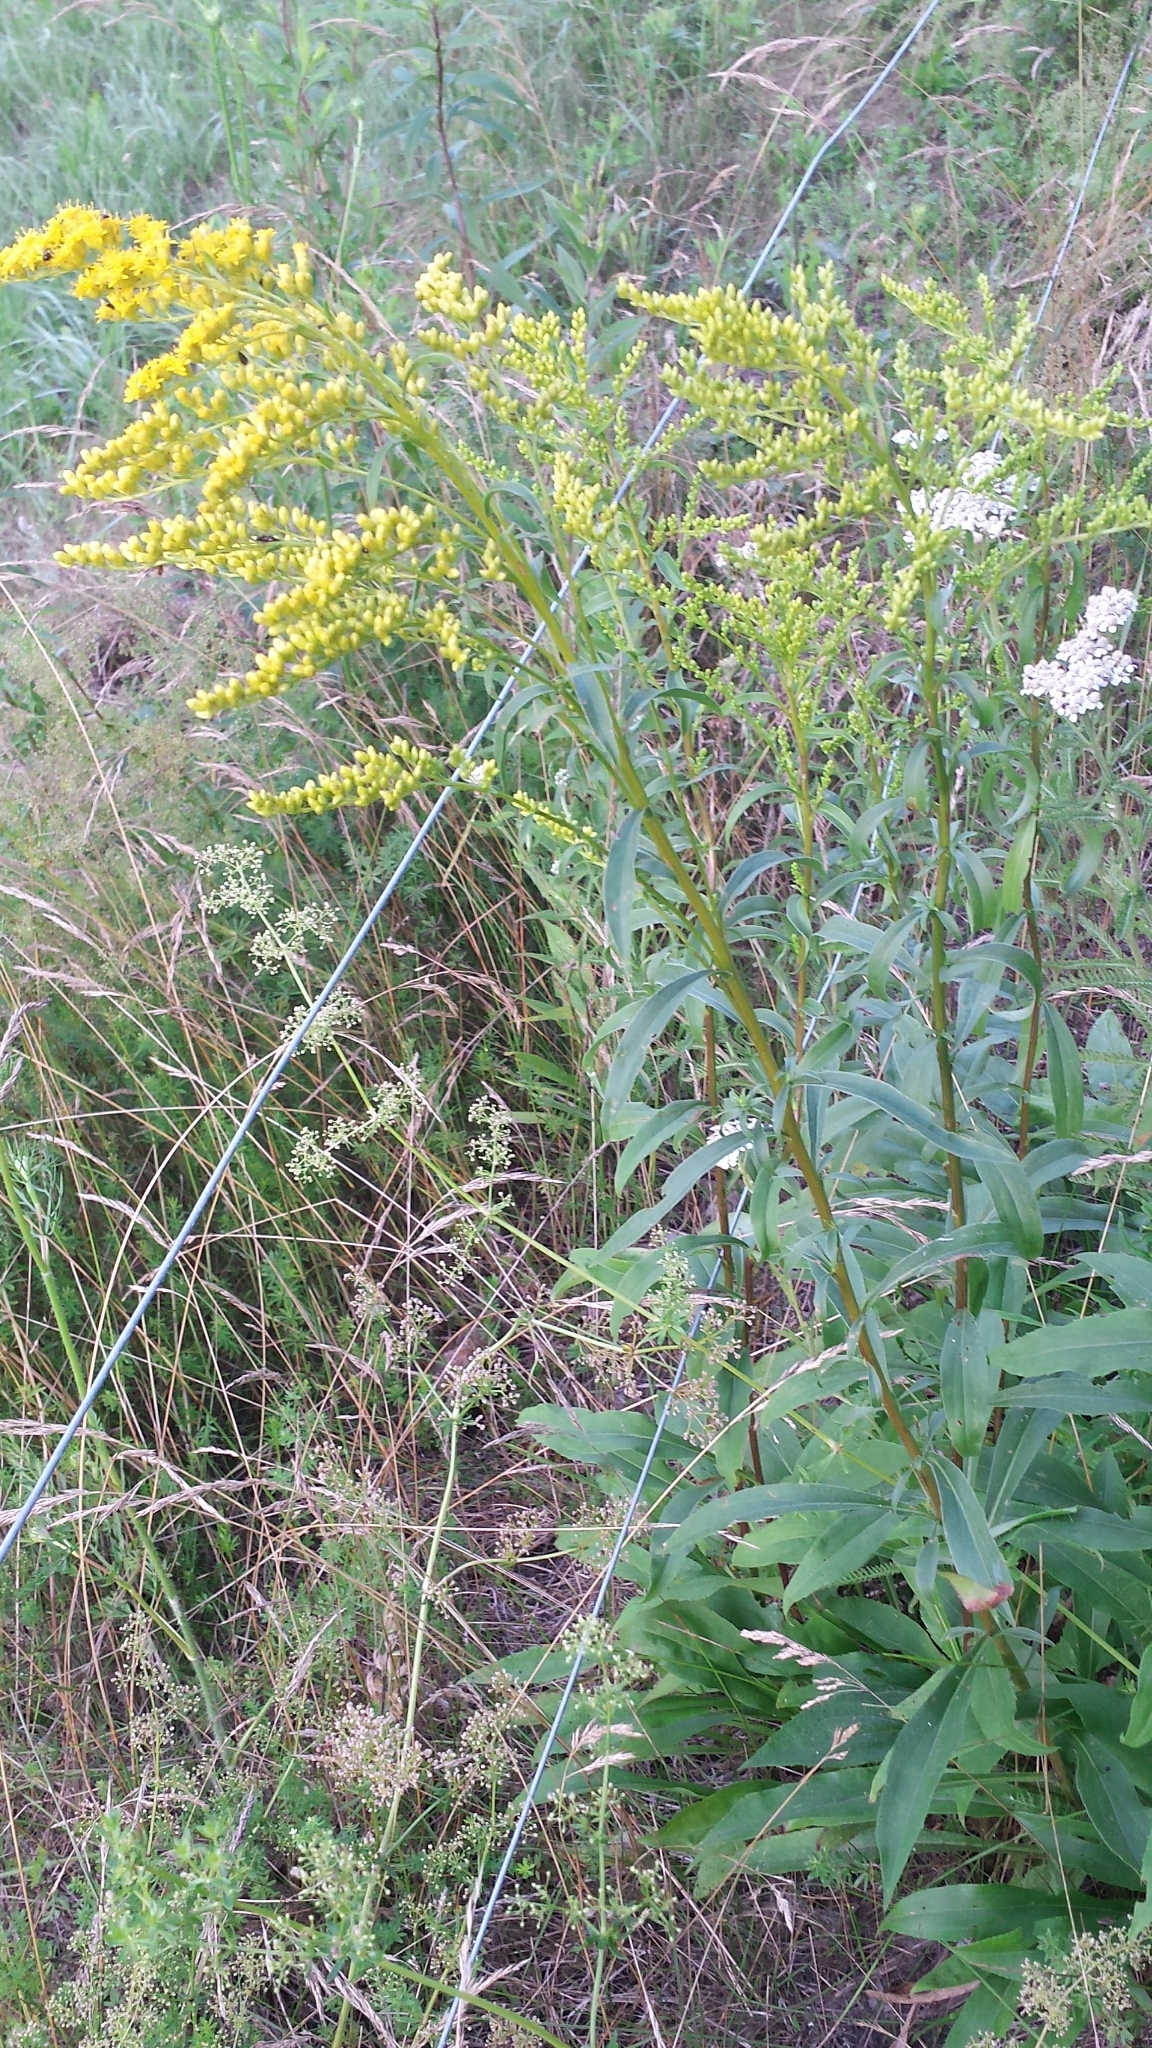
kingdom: Plantae
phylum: Tracheophyta
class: Magnoliopsida
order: Asterales
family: Asteraceae
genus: Solidago
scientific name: Solidago juncea
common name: Early goldenrod
